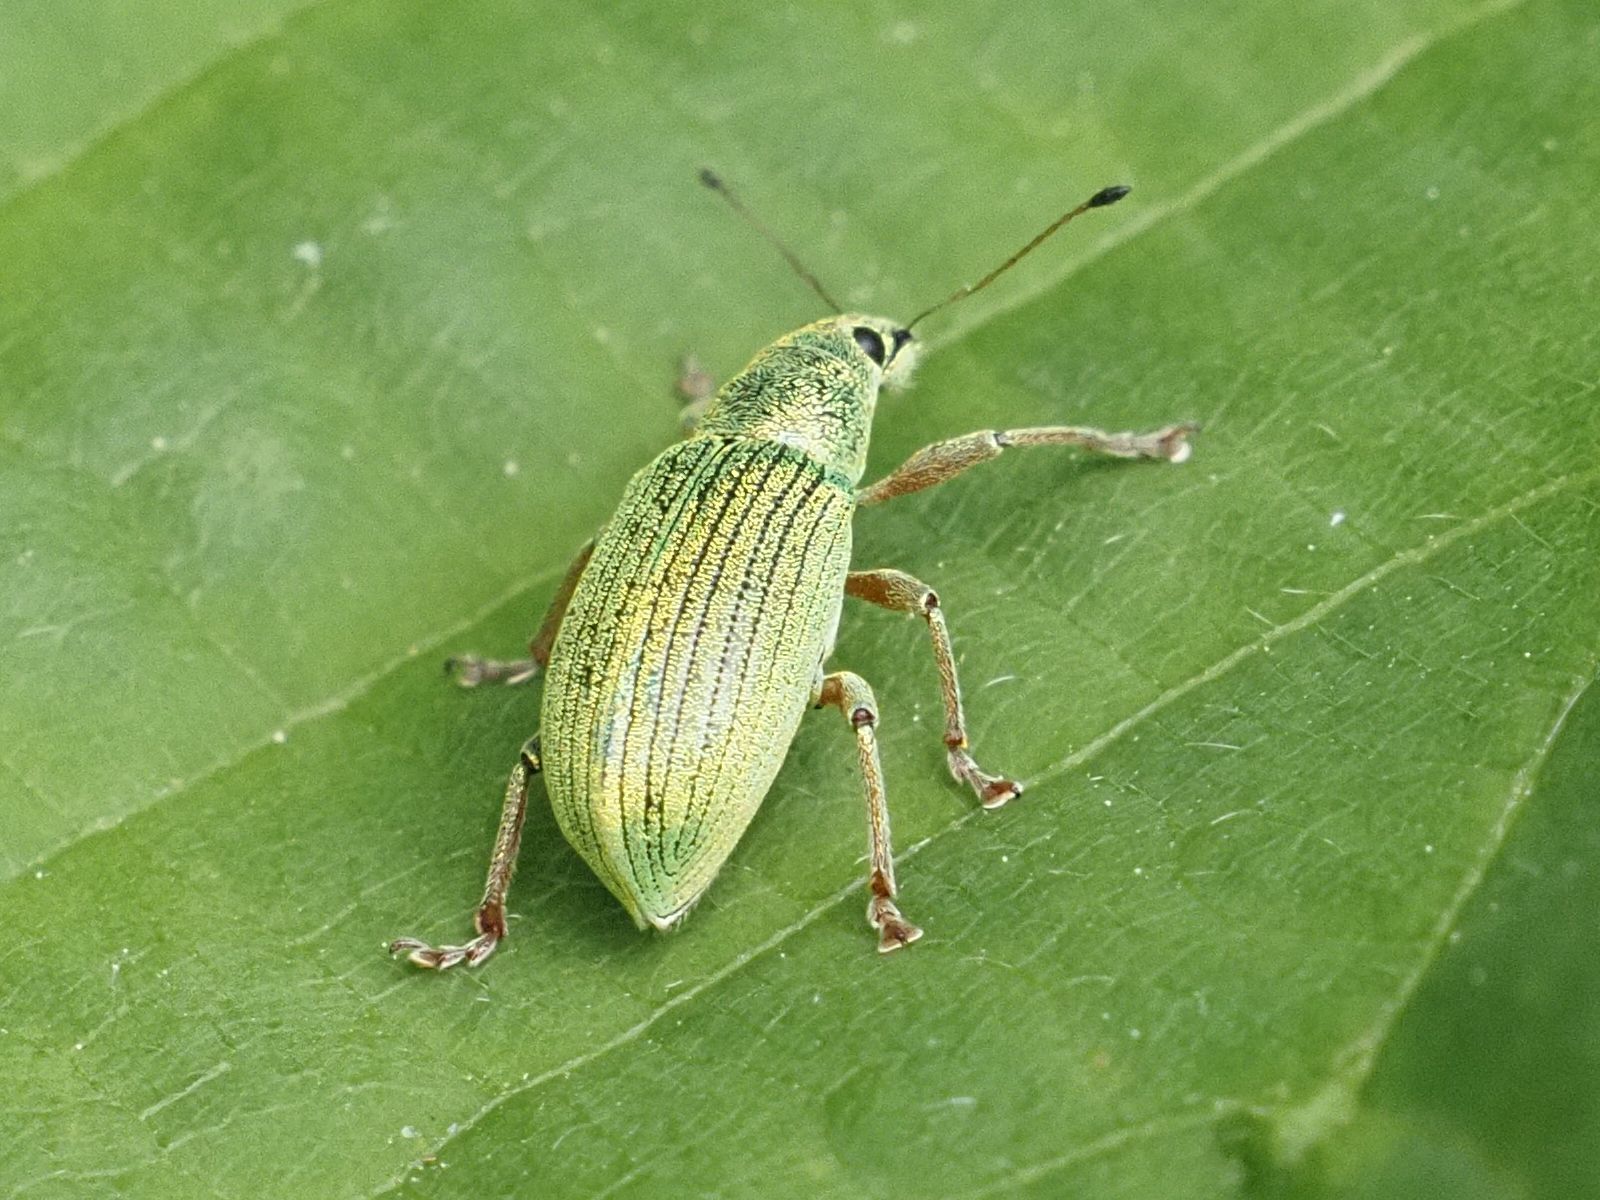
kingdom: Animalia
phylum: Arthropoda
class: Insecta
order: Coleoptera
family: Curculionidae
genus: Polydrusus
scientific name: Polydrusus formosus
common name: Weevil
